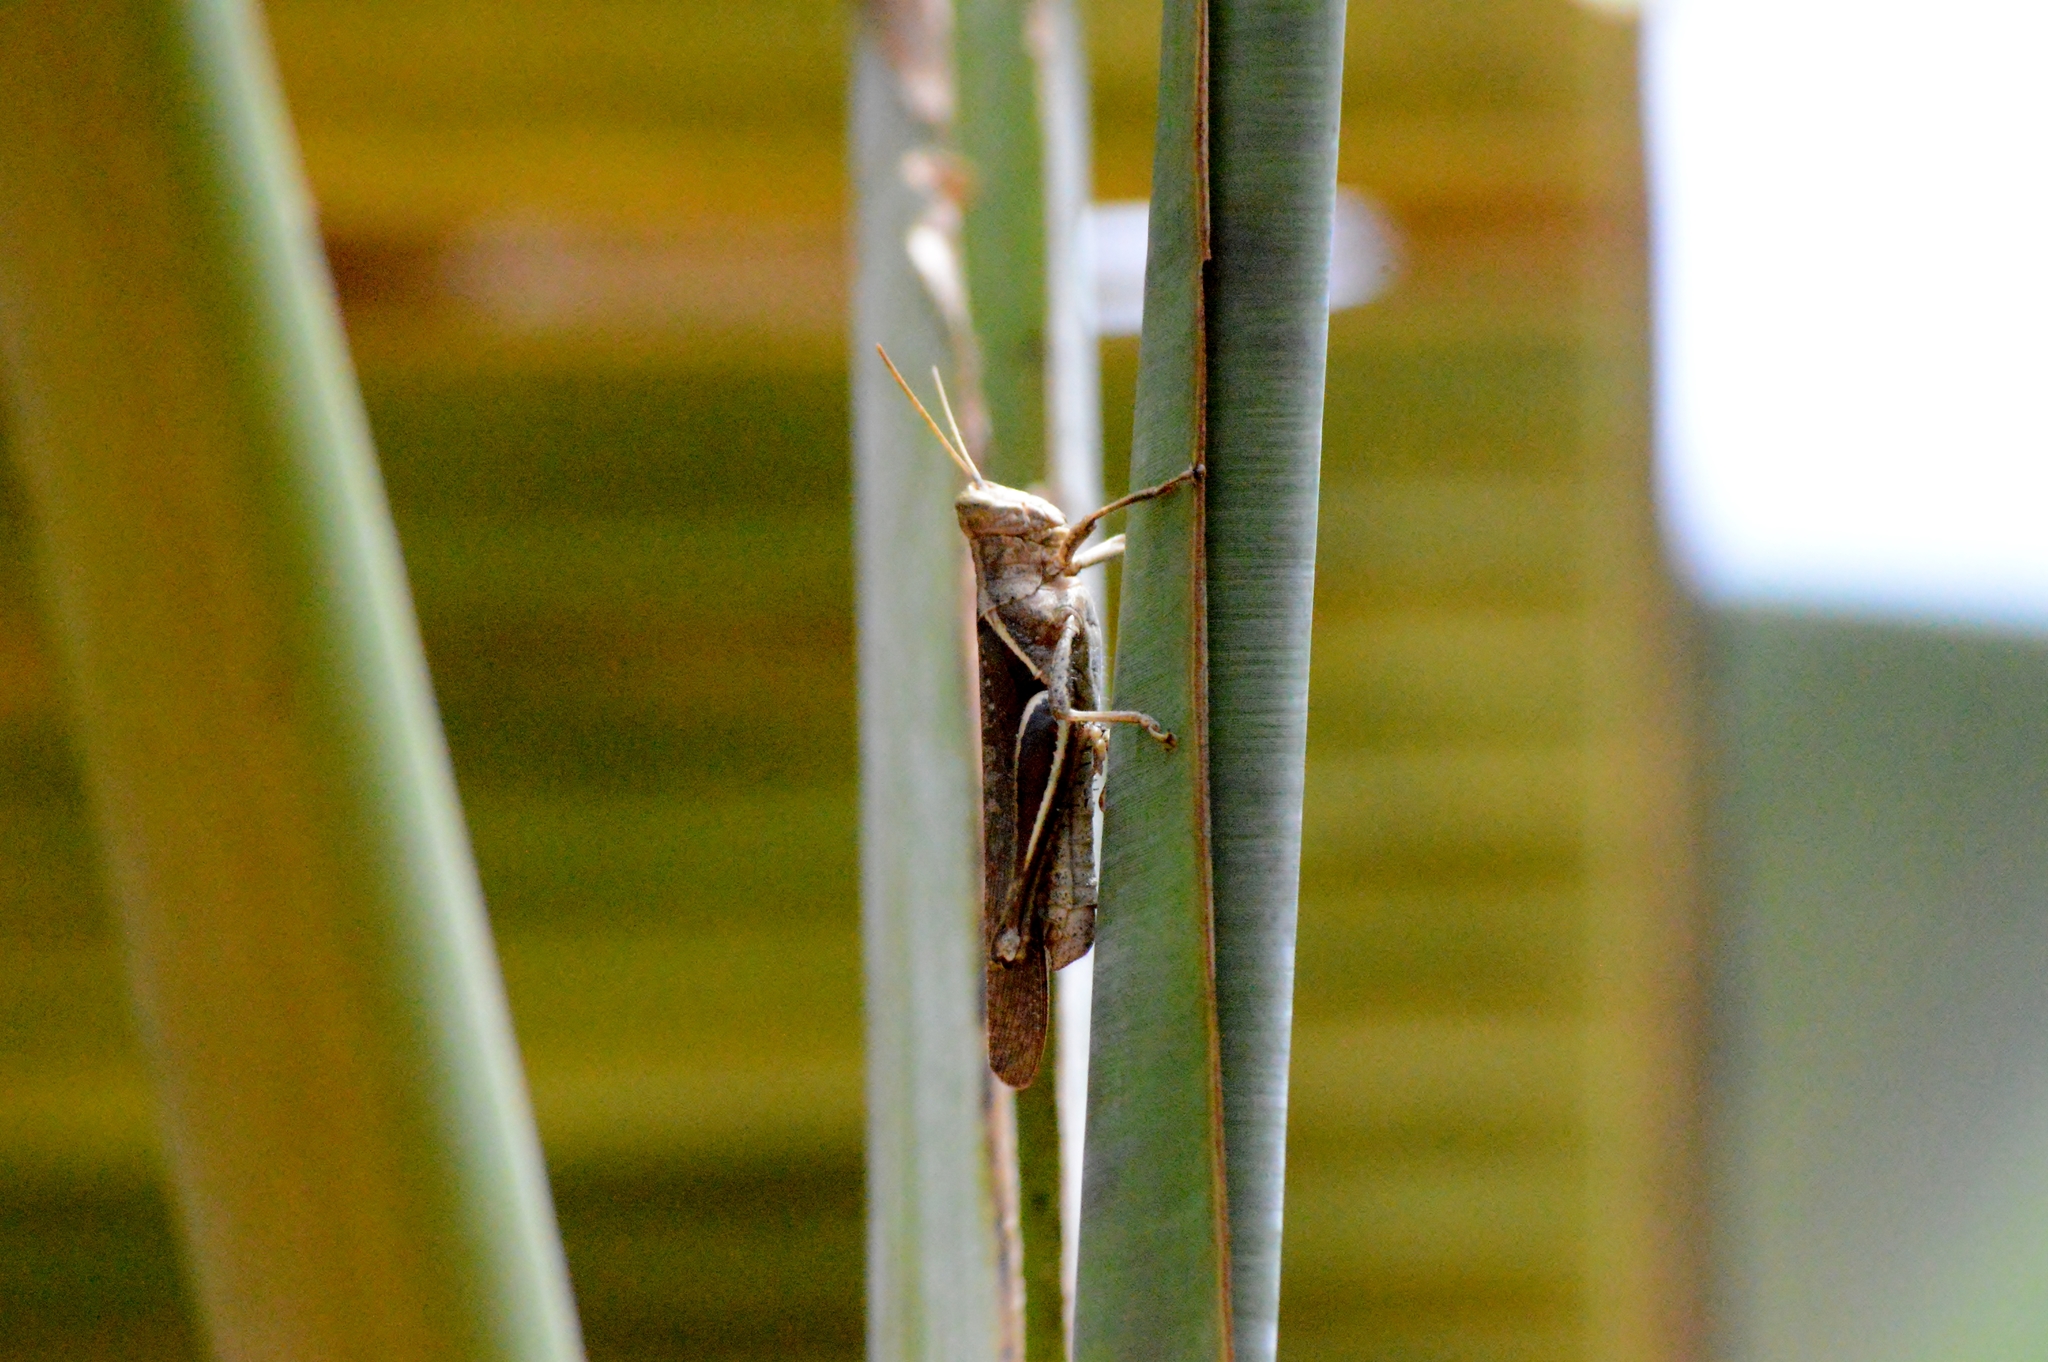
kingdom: Animalia
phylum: Arthropoda
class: Insecta
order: Orthoptera
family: Acrididae
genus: Abracris
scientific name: Abracris flavolineata
